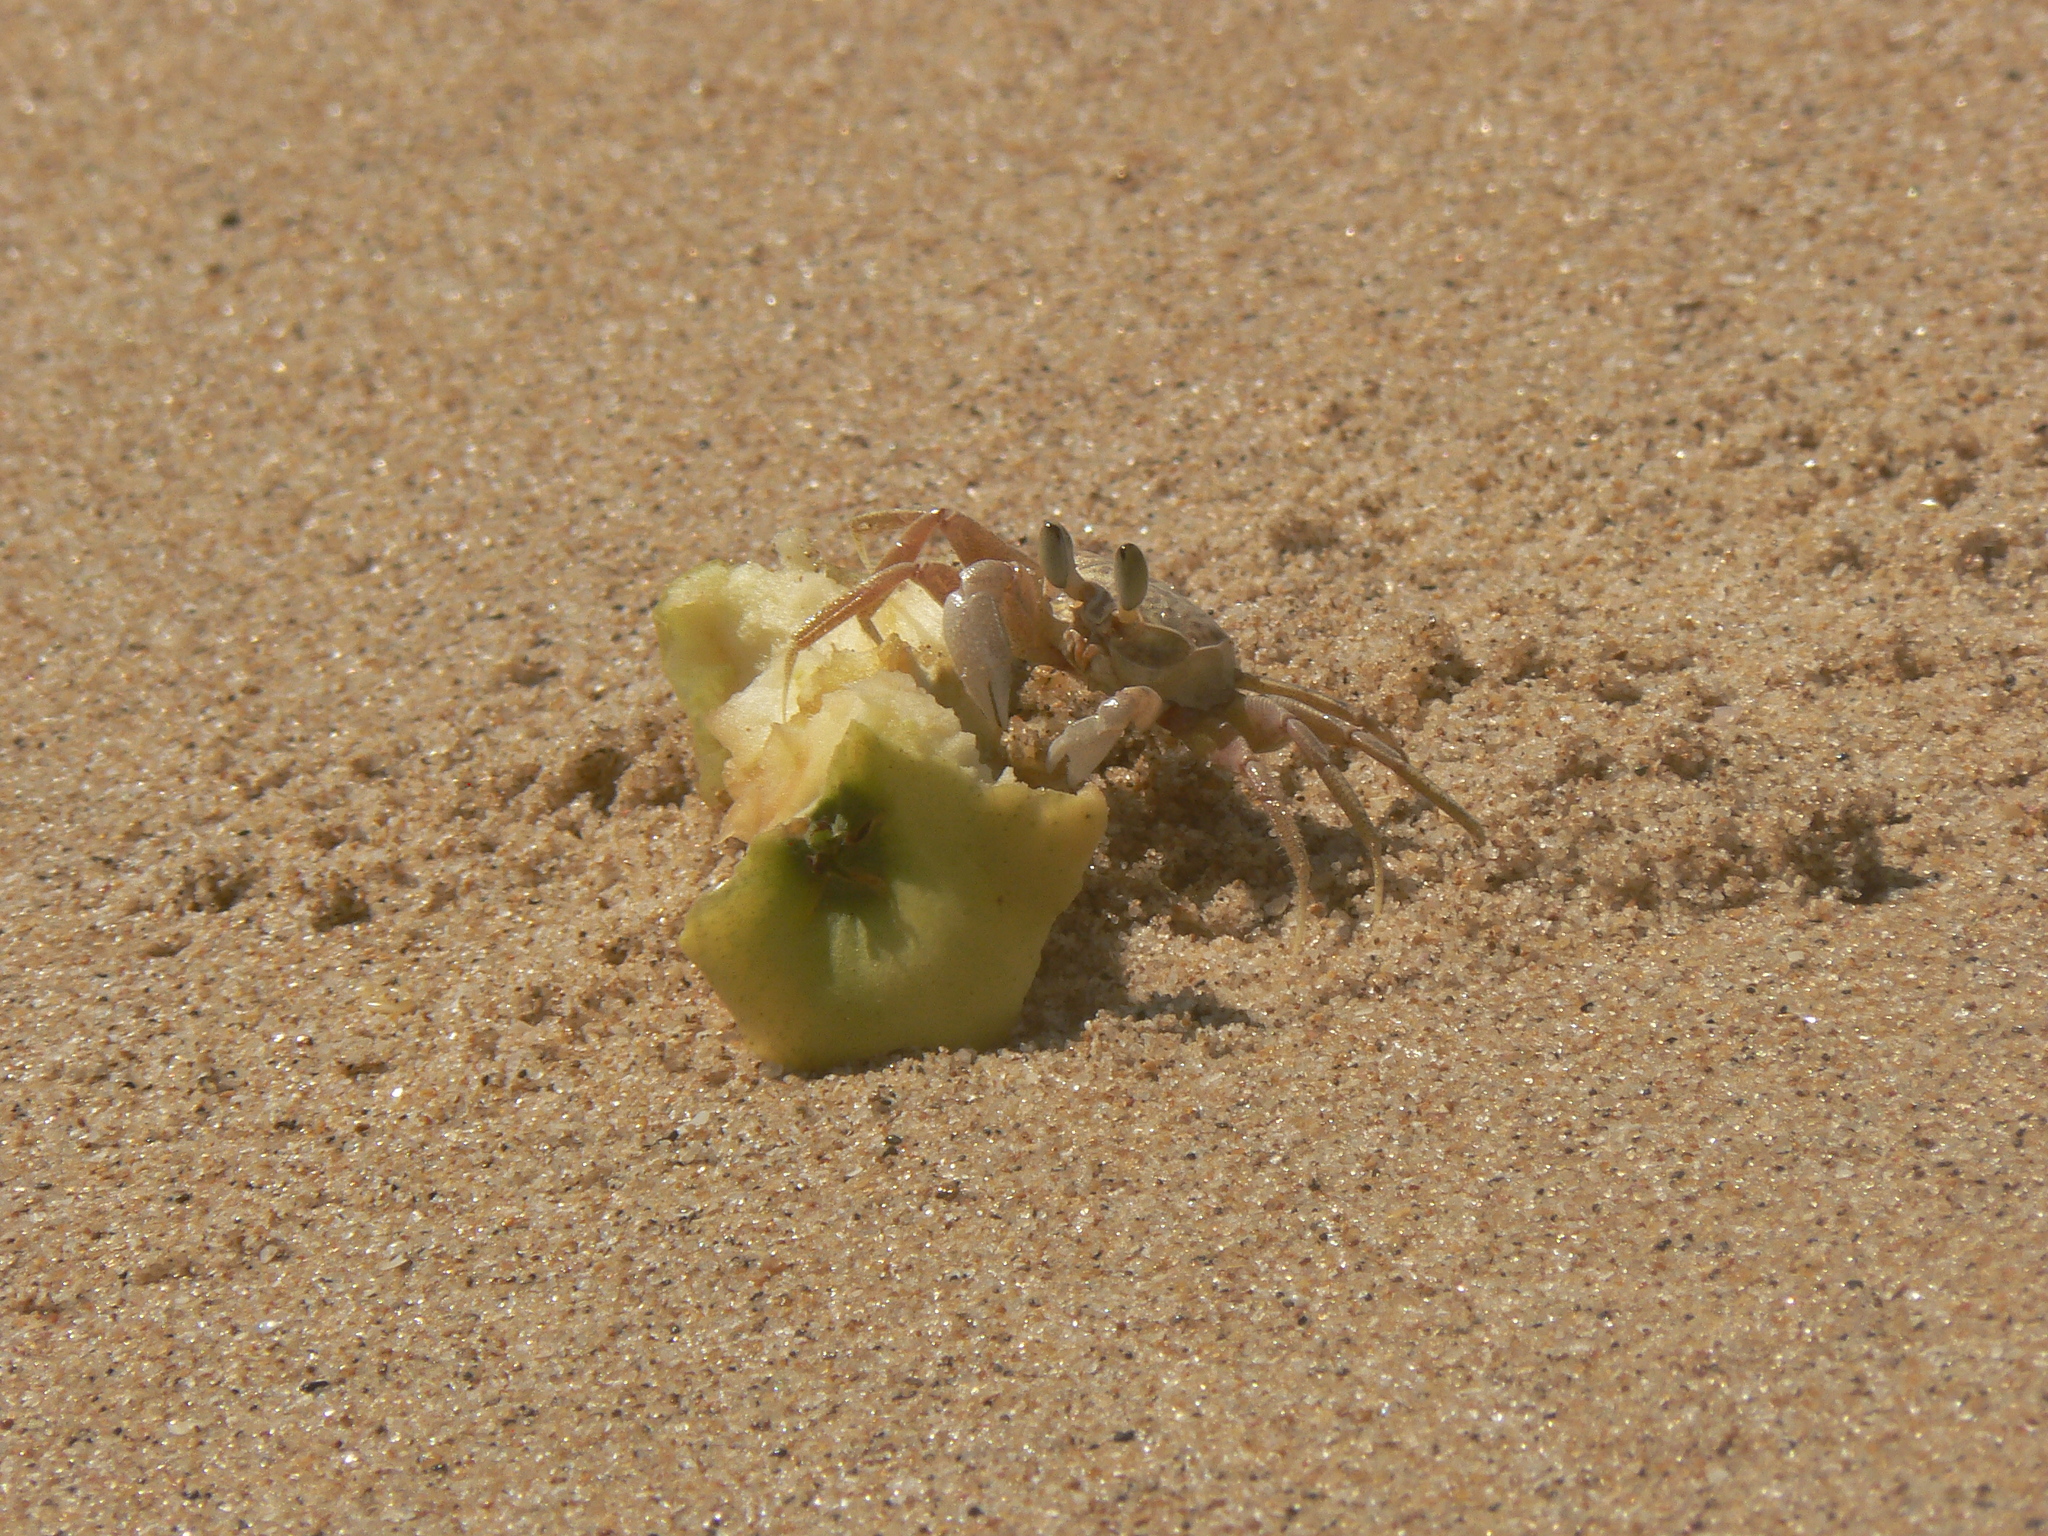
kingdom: Animalia
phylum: Arthropoda
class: Malacostraca
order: Decapoda
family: Ocypodidae
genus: Ocypode
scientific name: Ocypode ryderi
